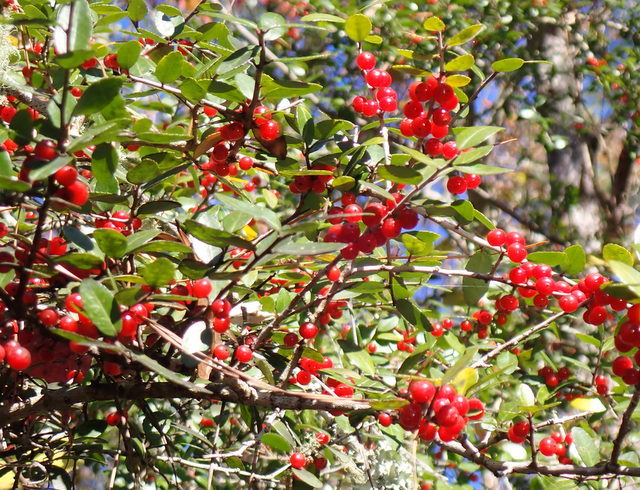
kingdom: Plantae
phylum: Tracheophyta
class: Magnoliopsida
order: Aquifoliales
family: Aquifoliaceae
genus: Ilex
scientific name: Ilex vomitoria
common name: Yaupon holly
